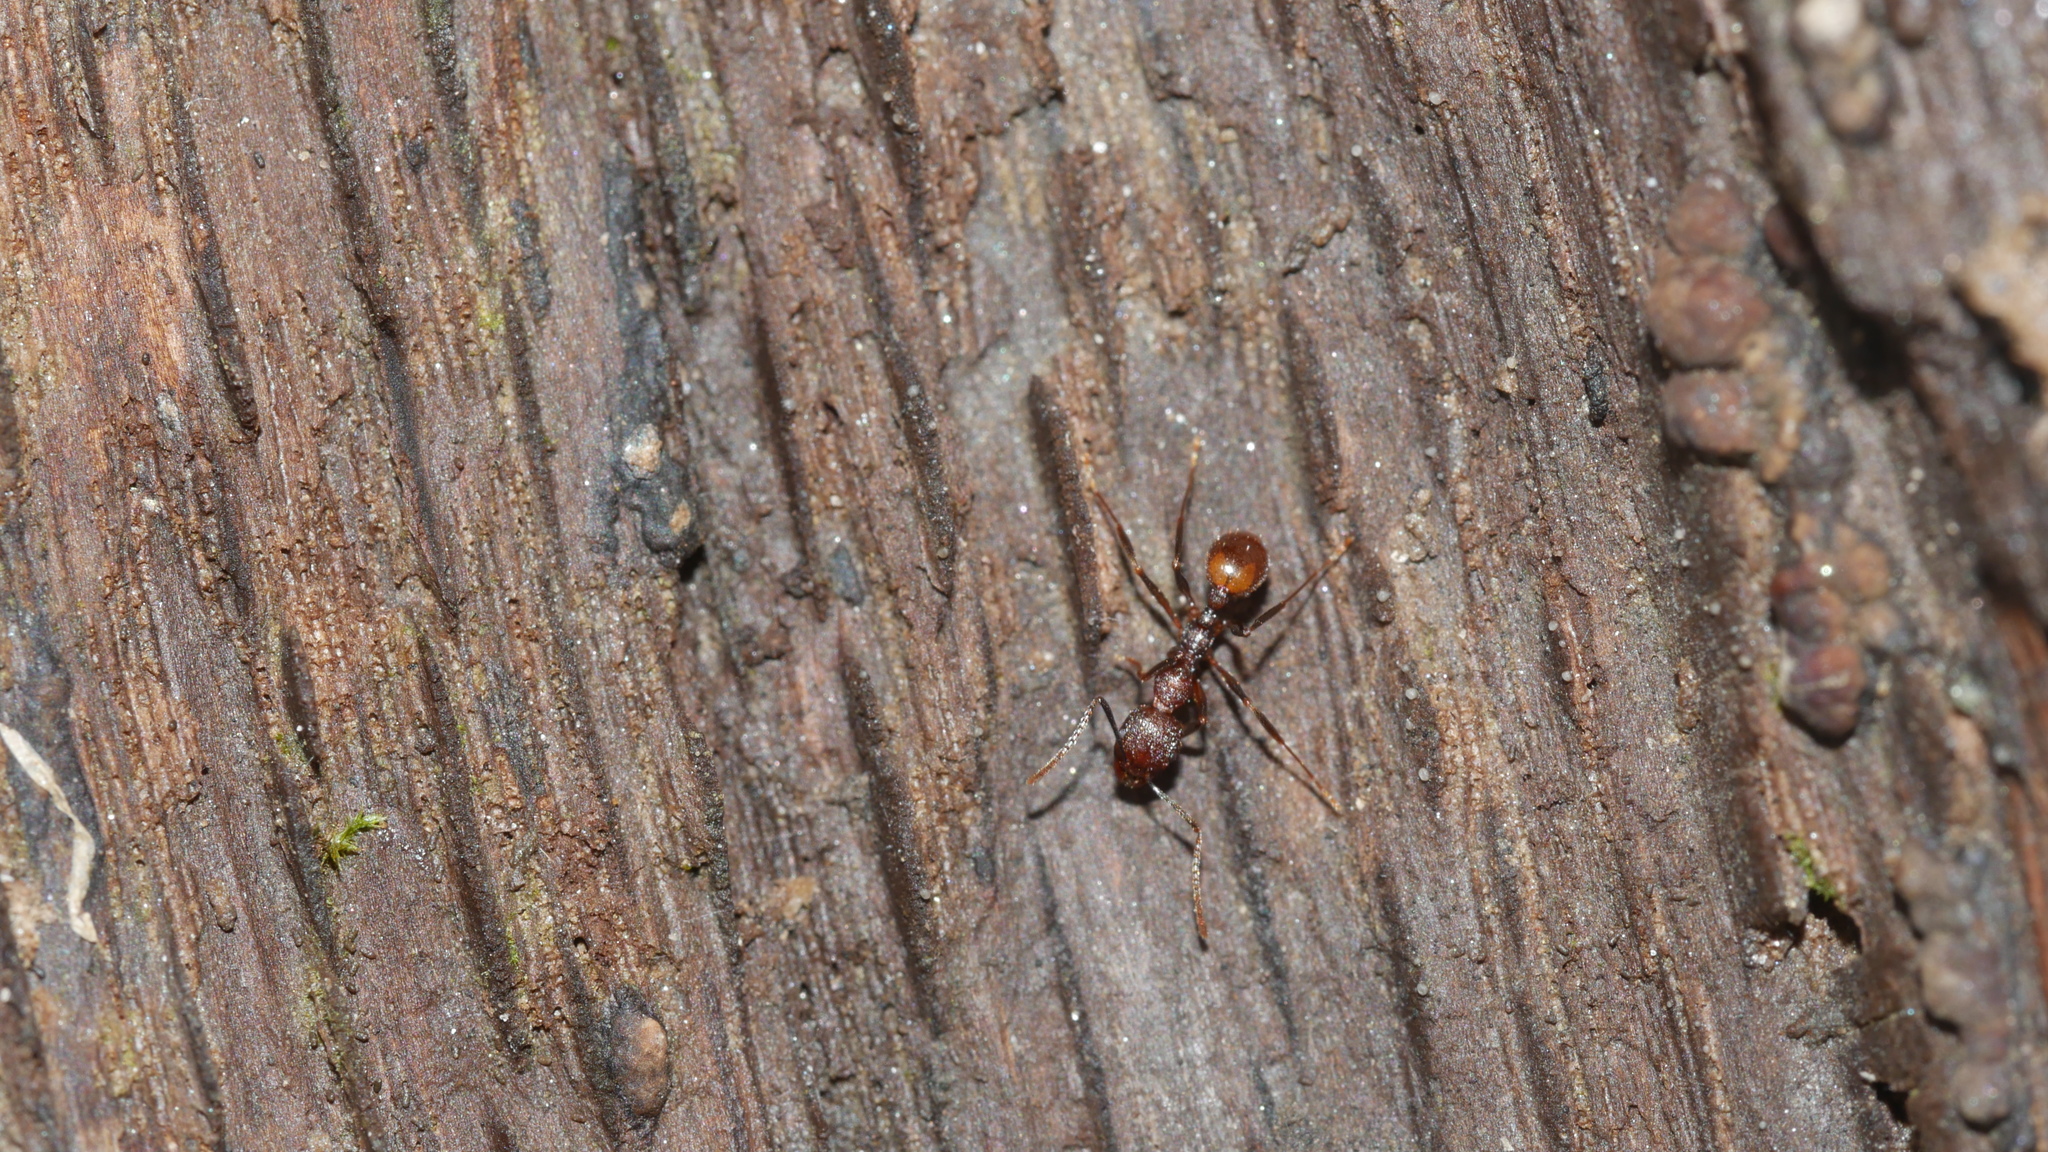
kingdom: Animalia
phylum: Arthropoda
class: Insecta
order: Hymenoptera
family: Formicidae
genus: Aphaenogaster
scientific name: Aphaenogaster lamellidens
